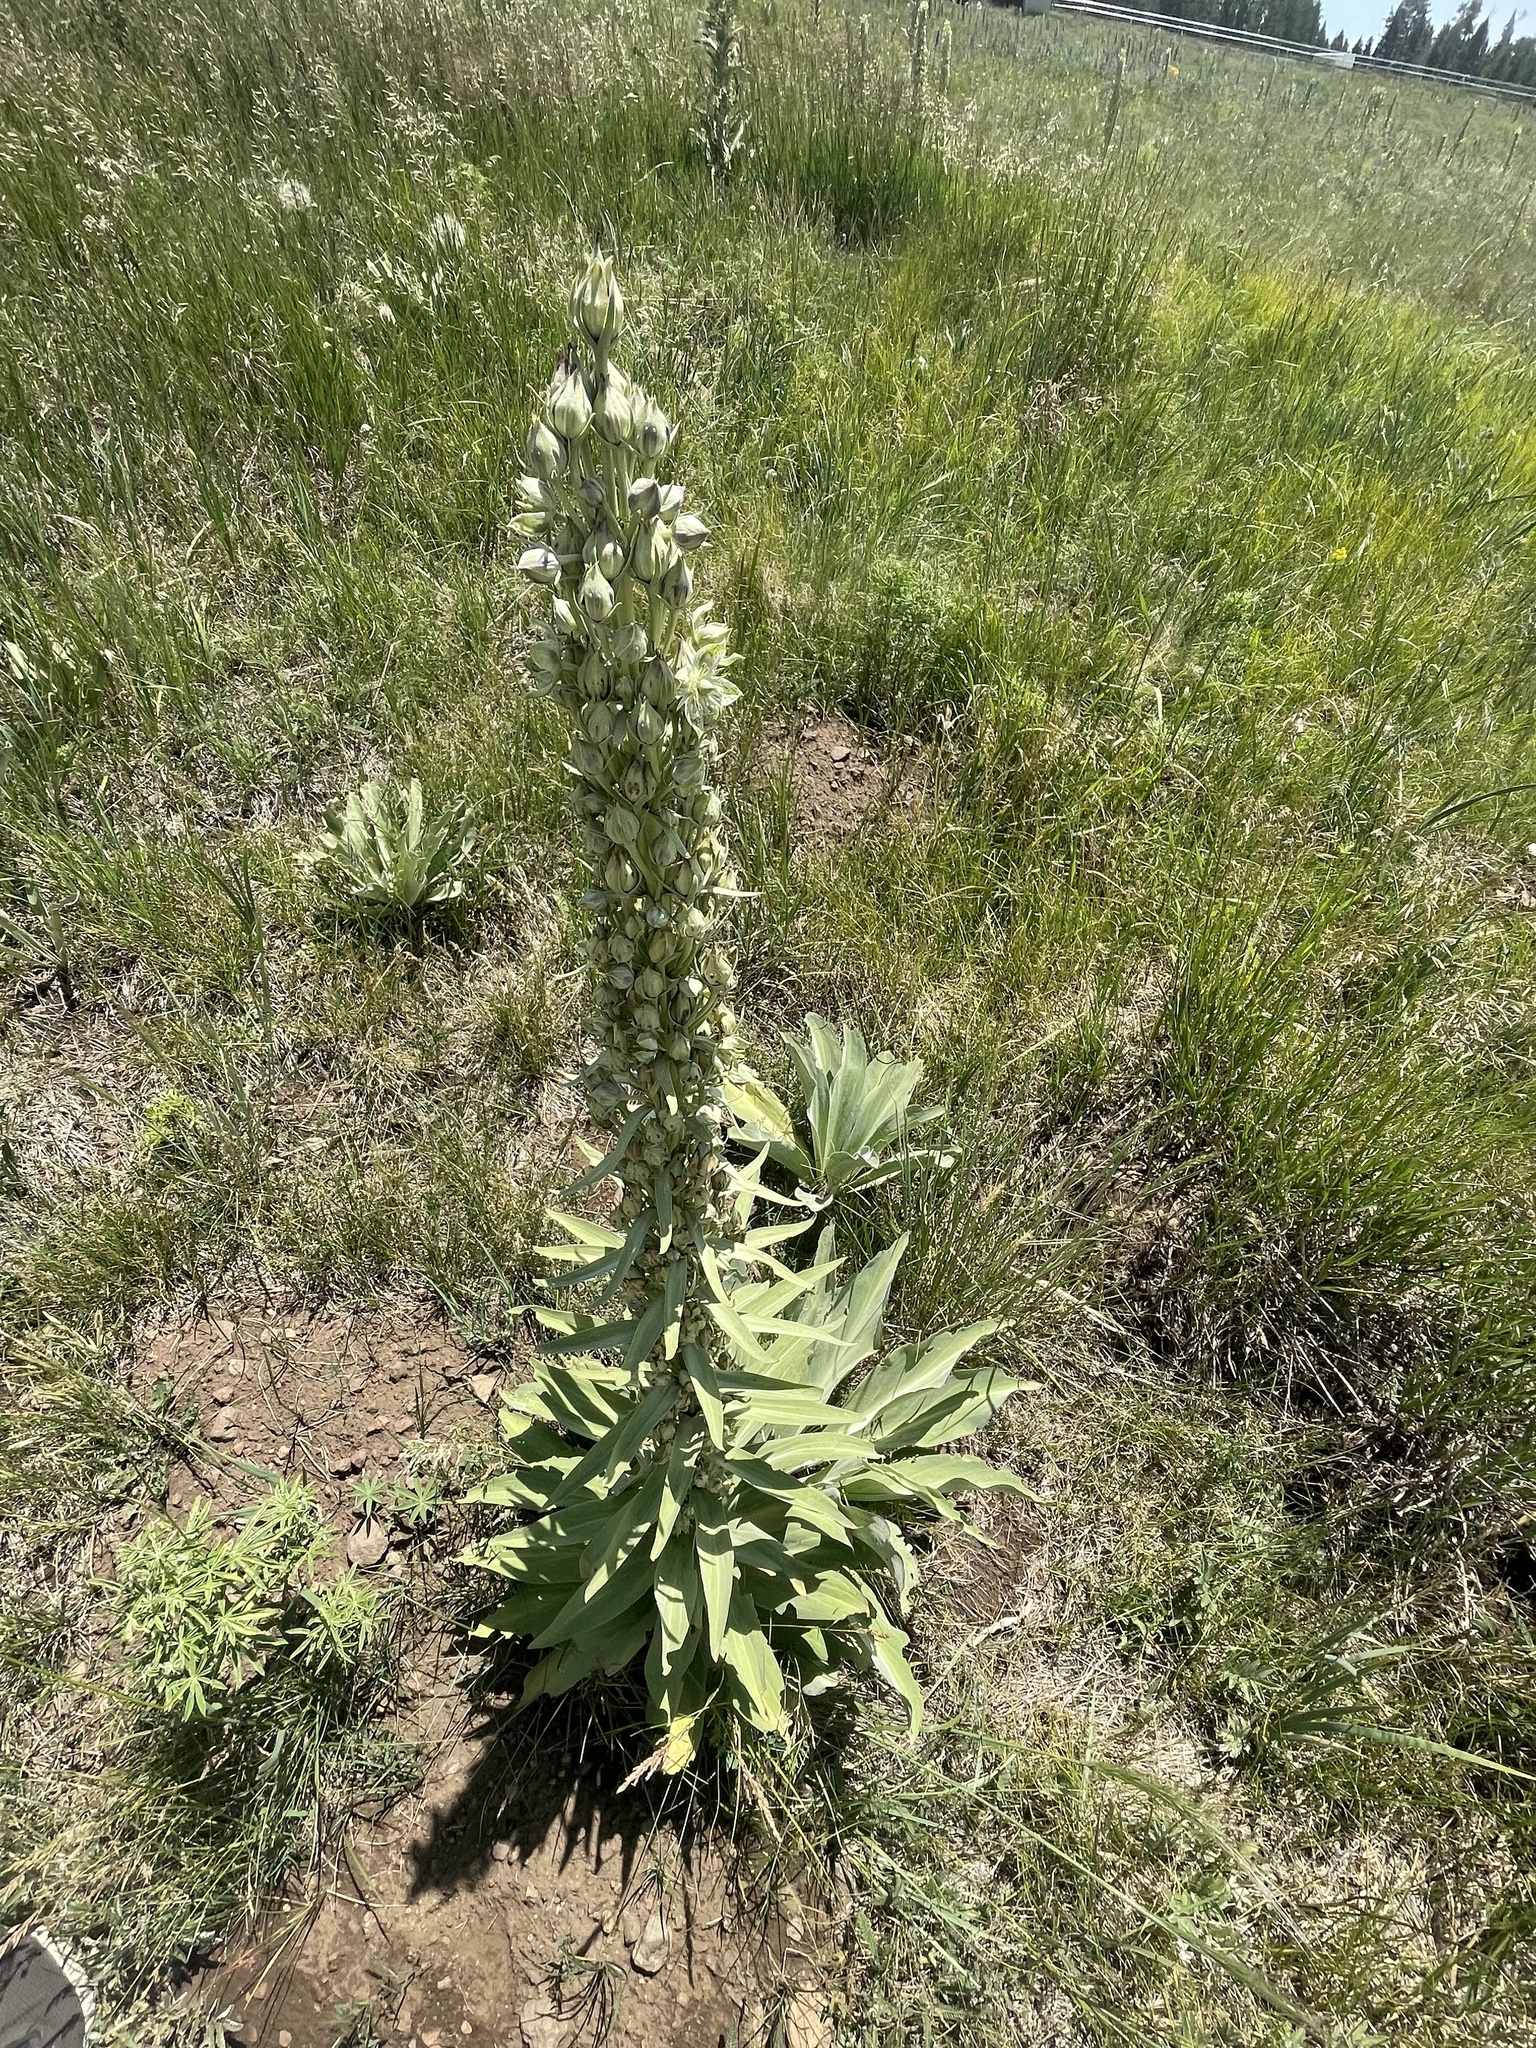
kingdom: Plantae
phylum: Tracheophyta
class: Magnoliopsida
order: Gentianales
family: Gentianaceae
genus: Frasera
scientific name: Frasera speciosa
